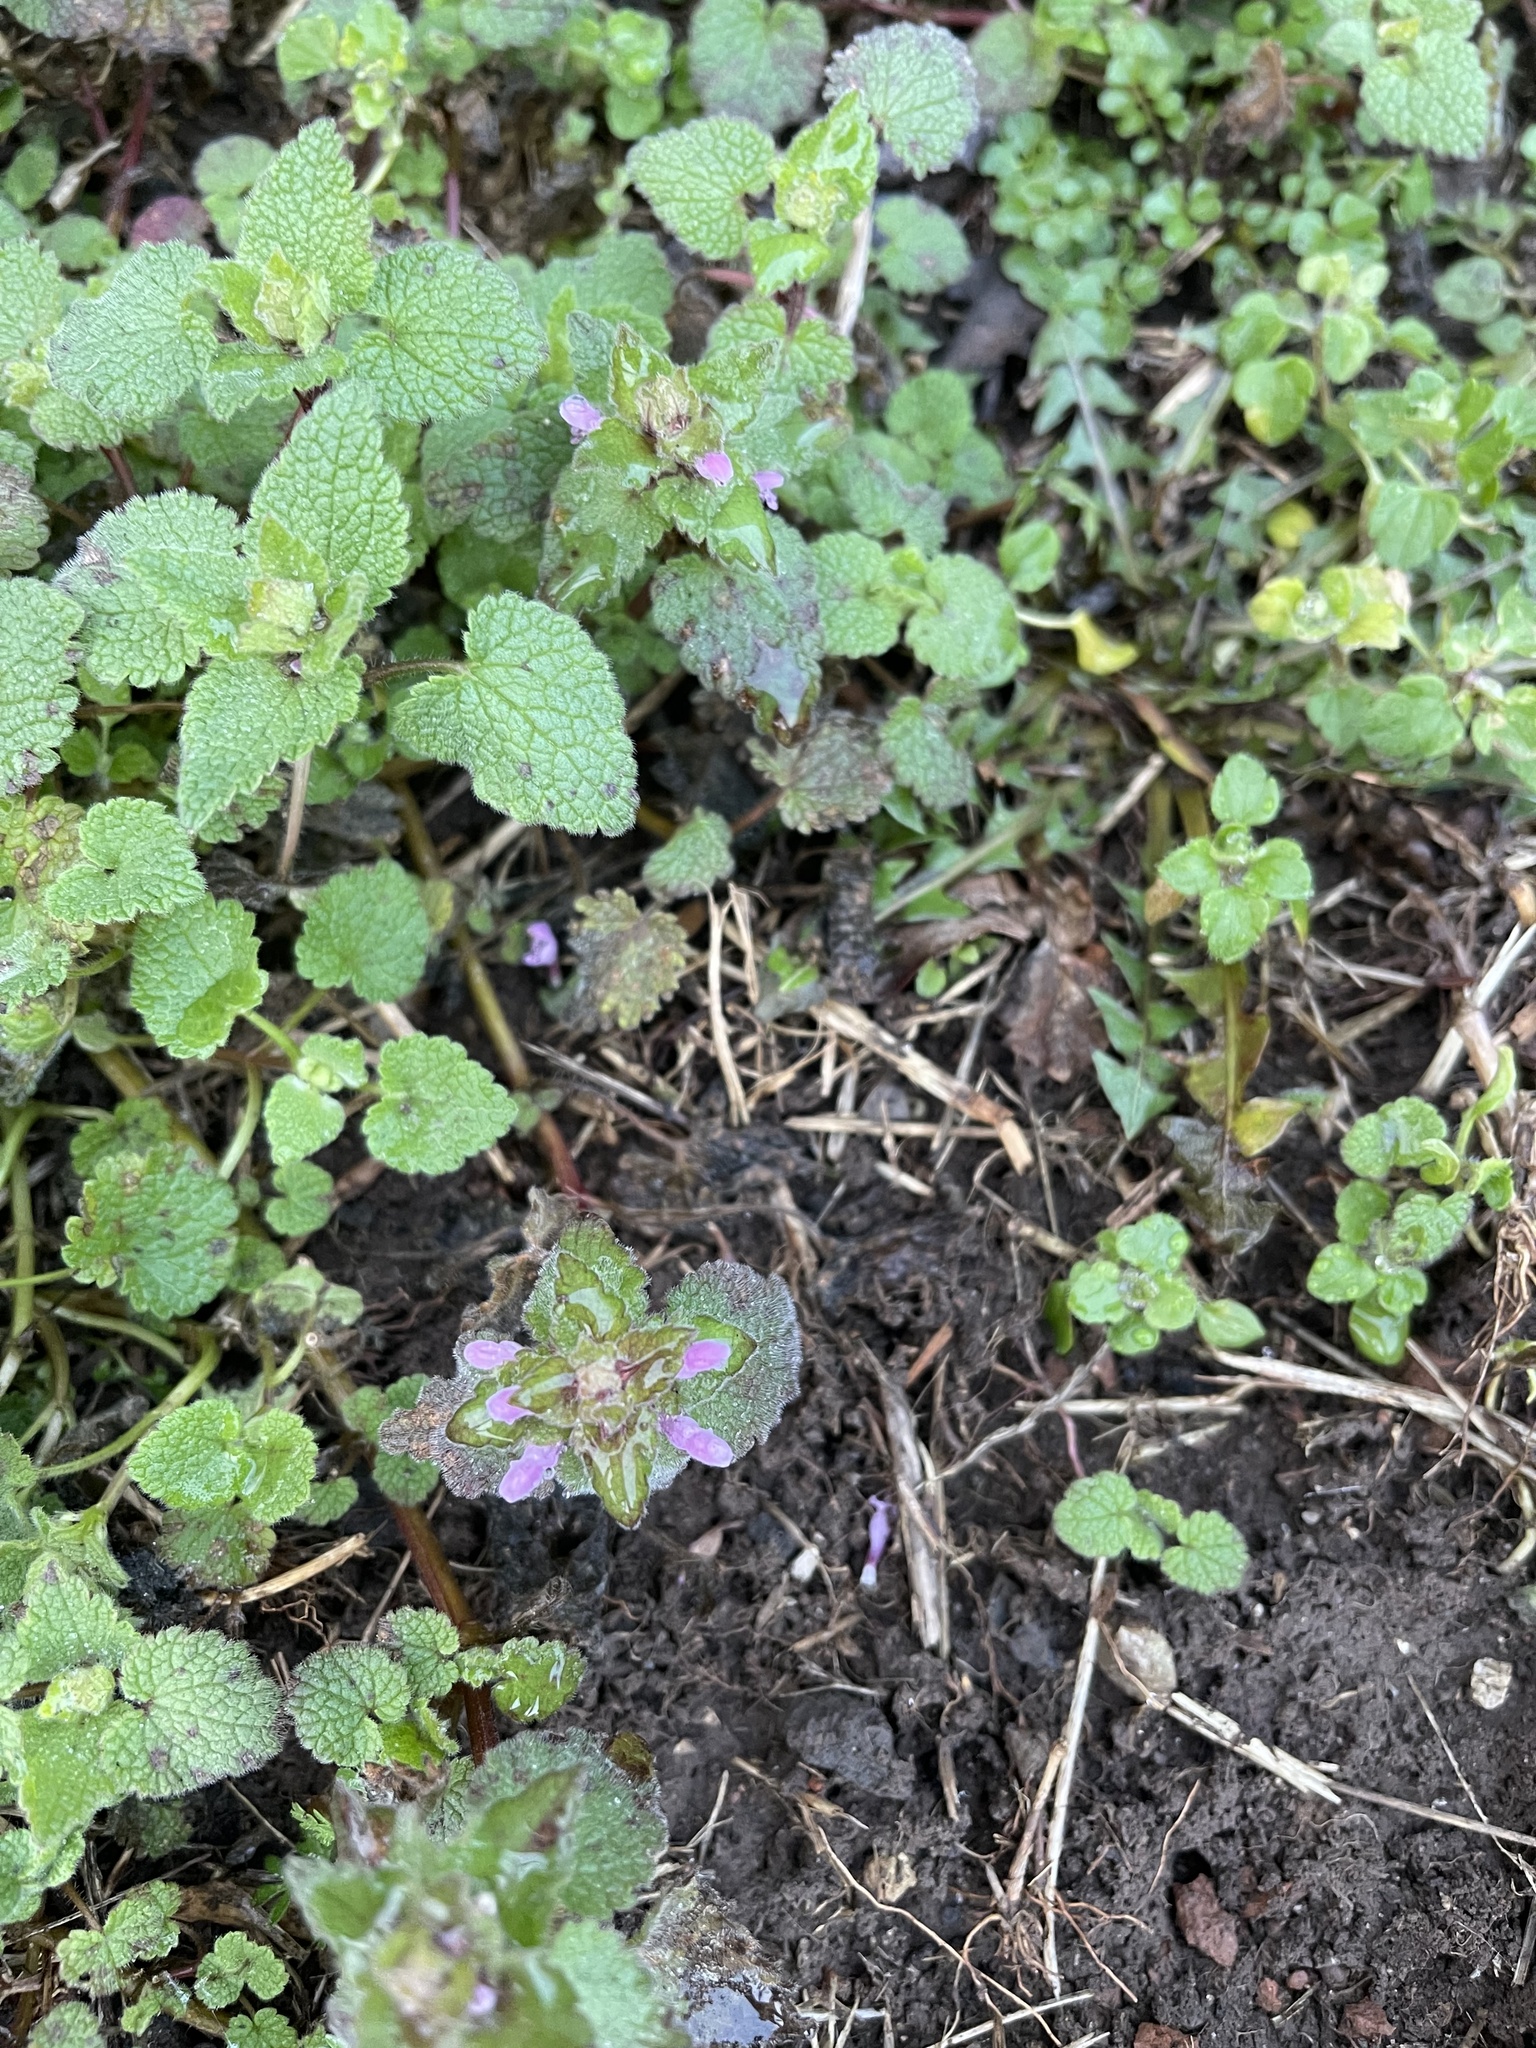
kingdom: Plantae
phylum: Tracheophyta
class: Magnoliopsida
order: Lamiales
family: Lamiaceae
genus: Lamium
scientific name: Lamium purpureum
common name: Red dead-nettle
